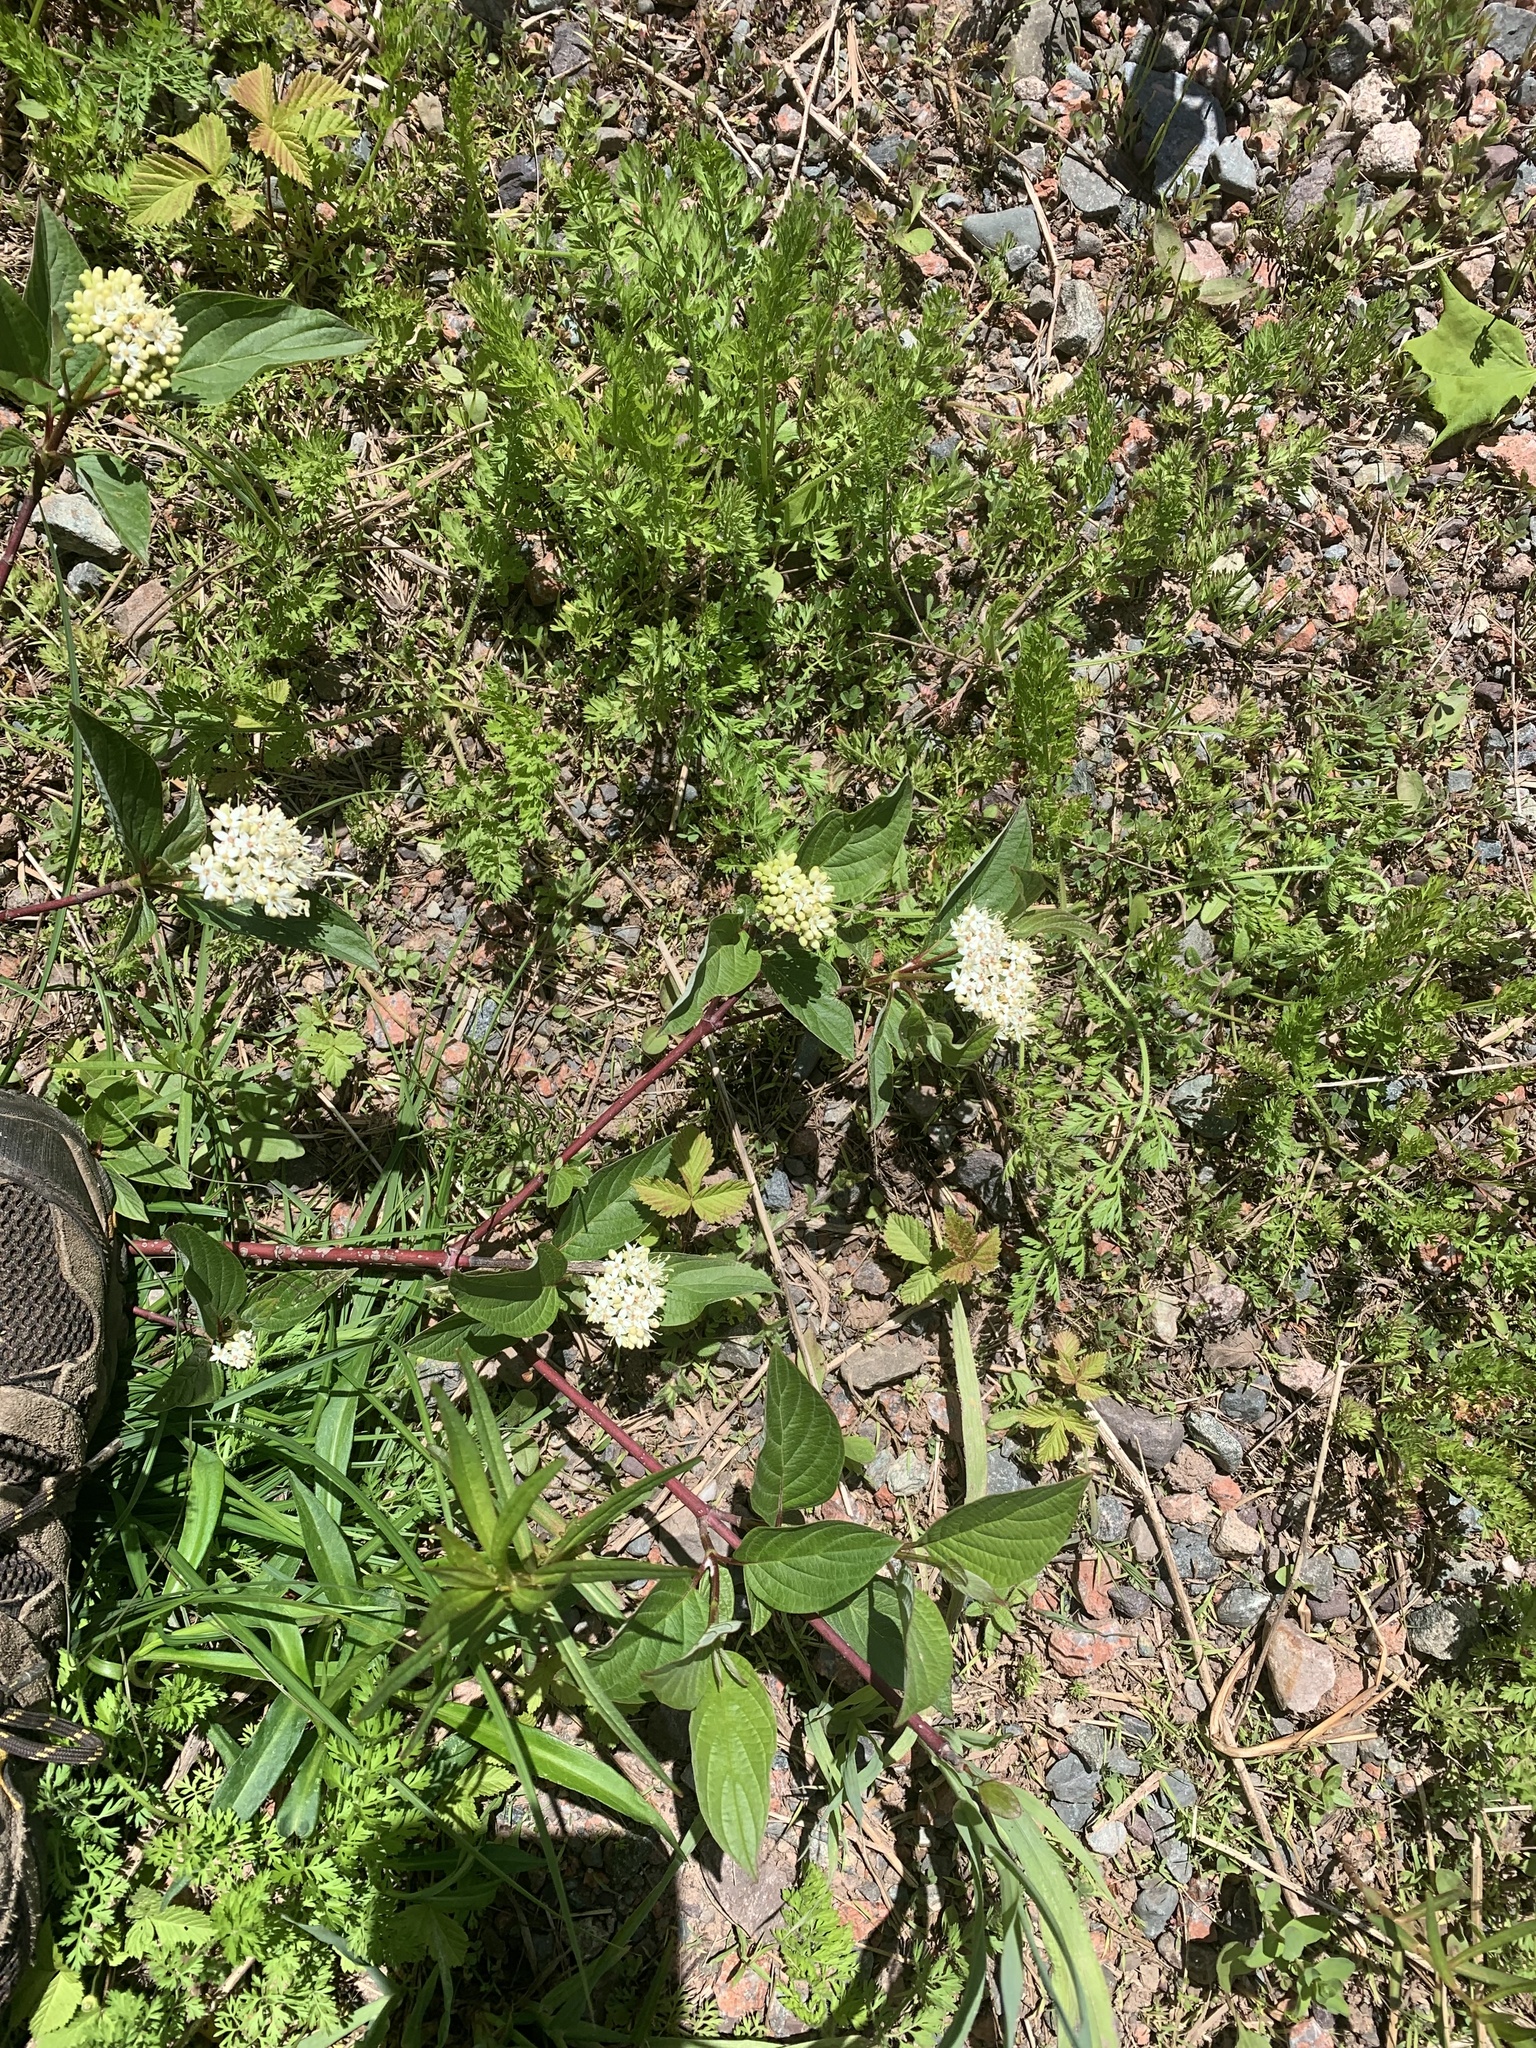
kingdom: Plantae
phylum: Tracheophyta
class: Magnoliopsida
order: Cornales
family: Cornaceae
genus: Cornus
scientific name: Cornus sericea
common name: Red-osier dogwood
